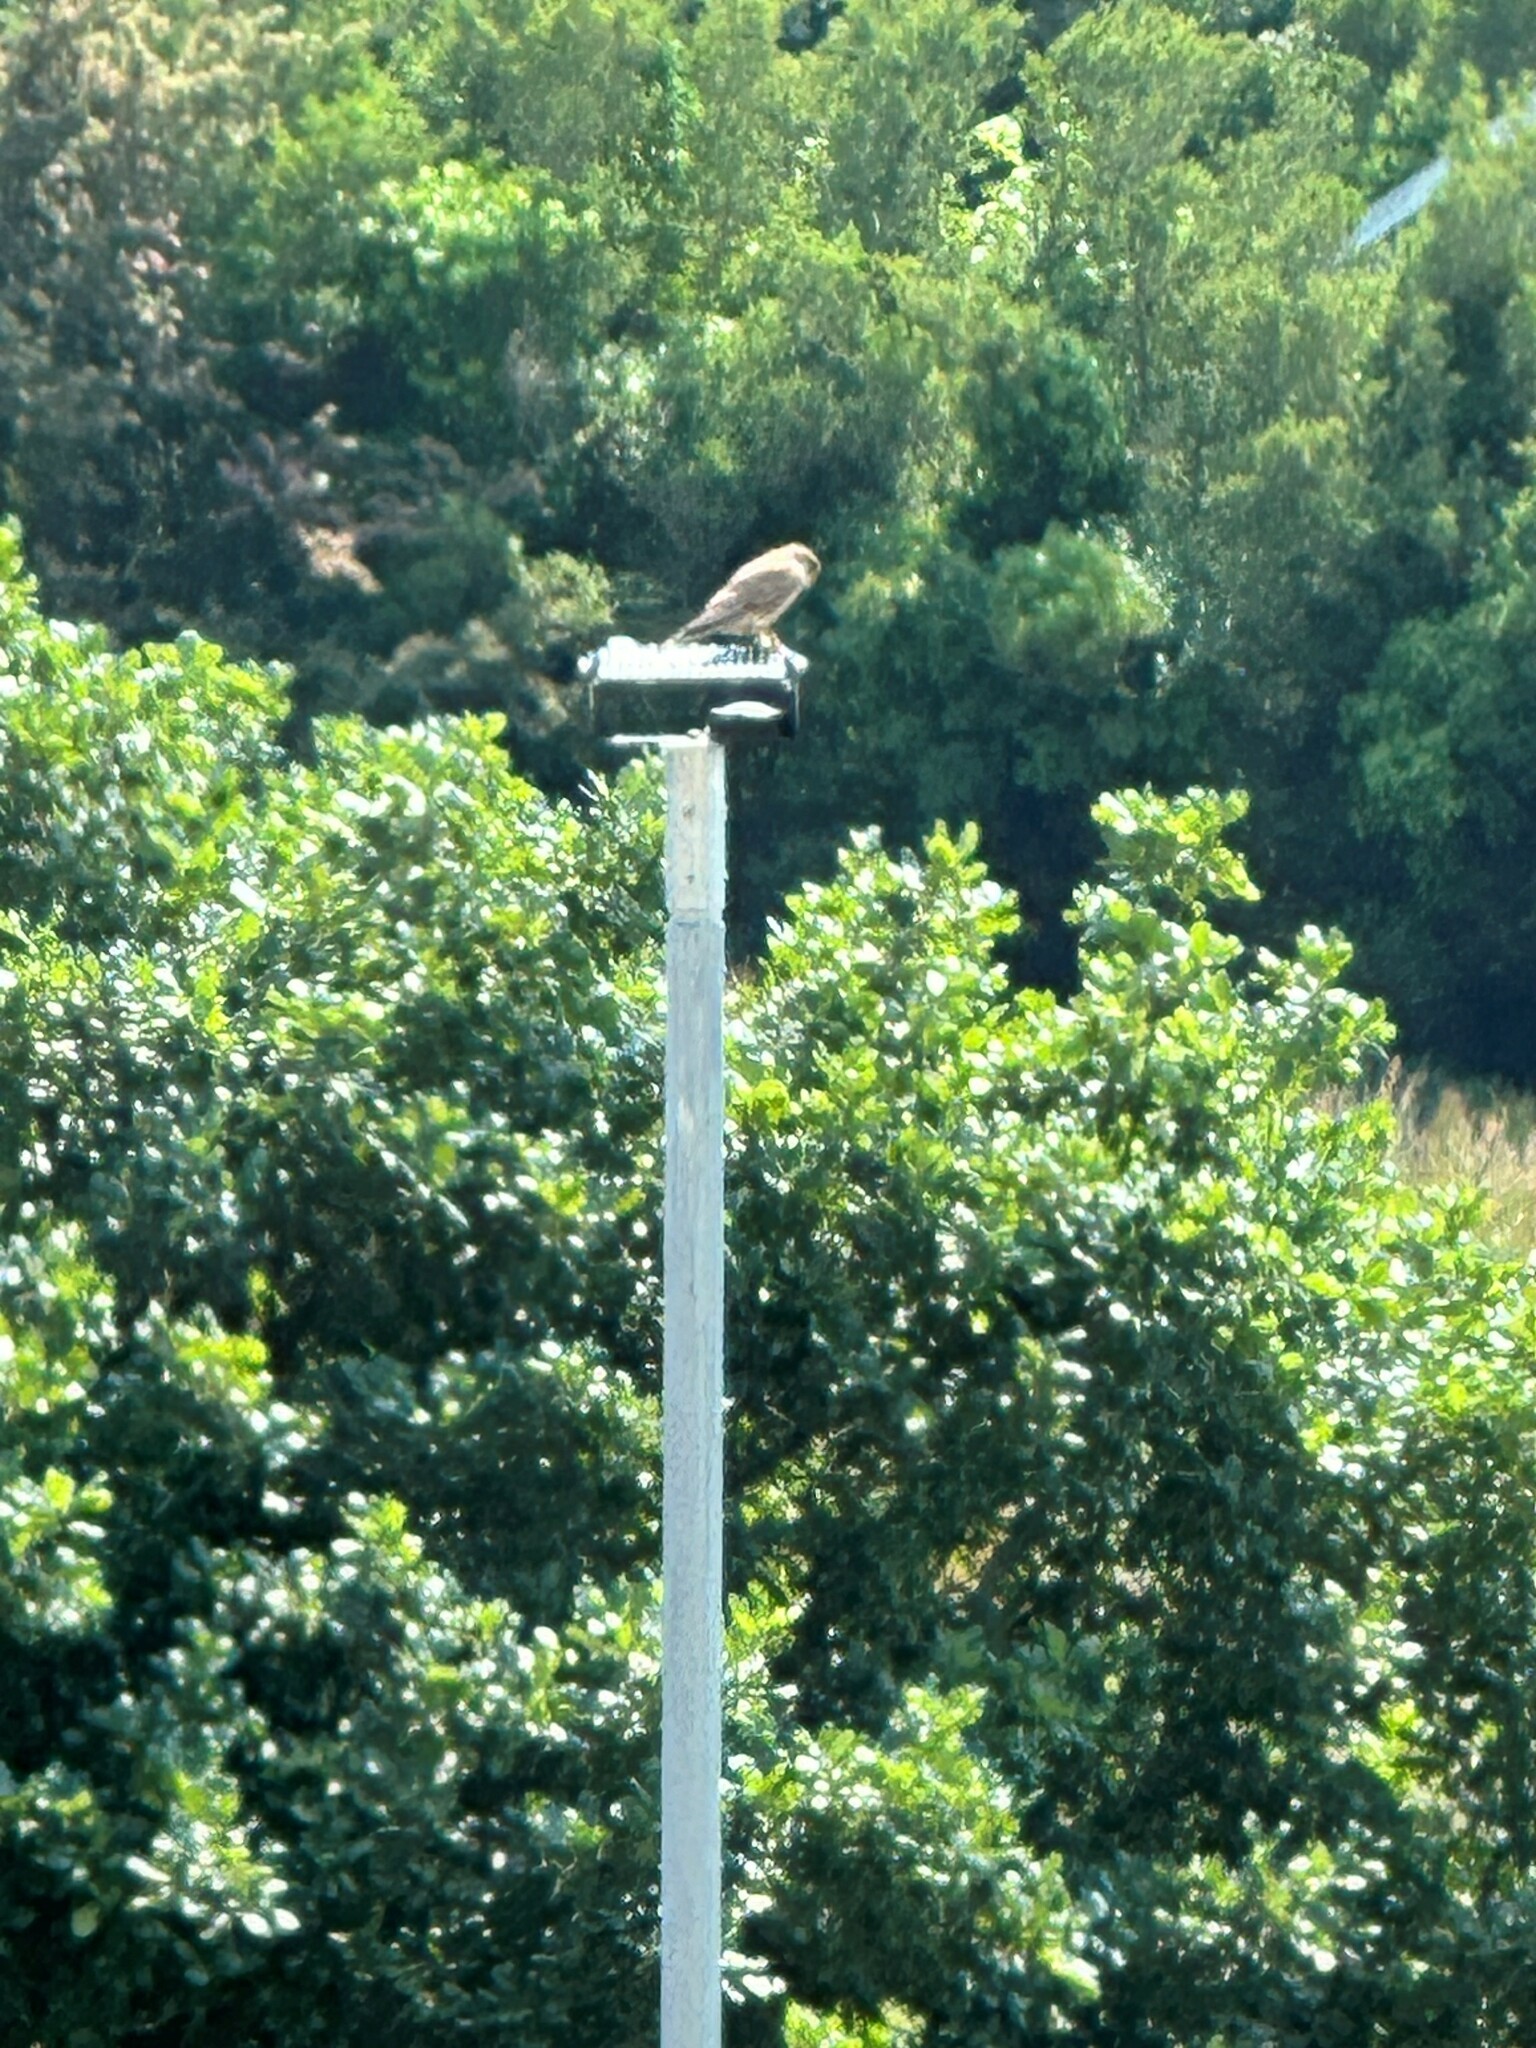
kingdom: Animalia
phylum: Chordata
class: Aves
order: Falconiformes
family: Falconidae
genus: Falco
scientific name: Falco tinnunculus
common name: Common kestrel
